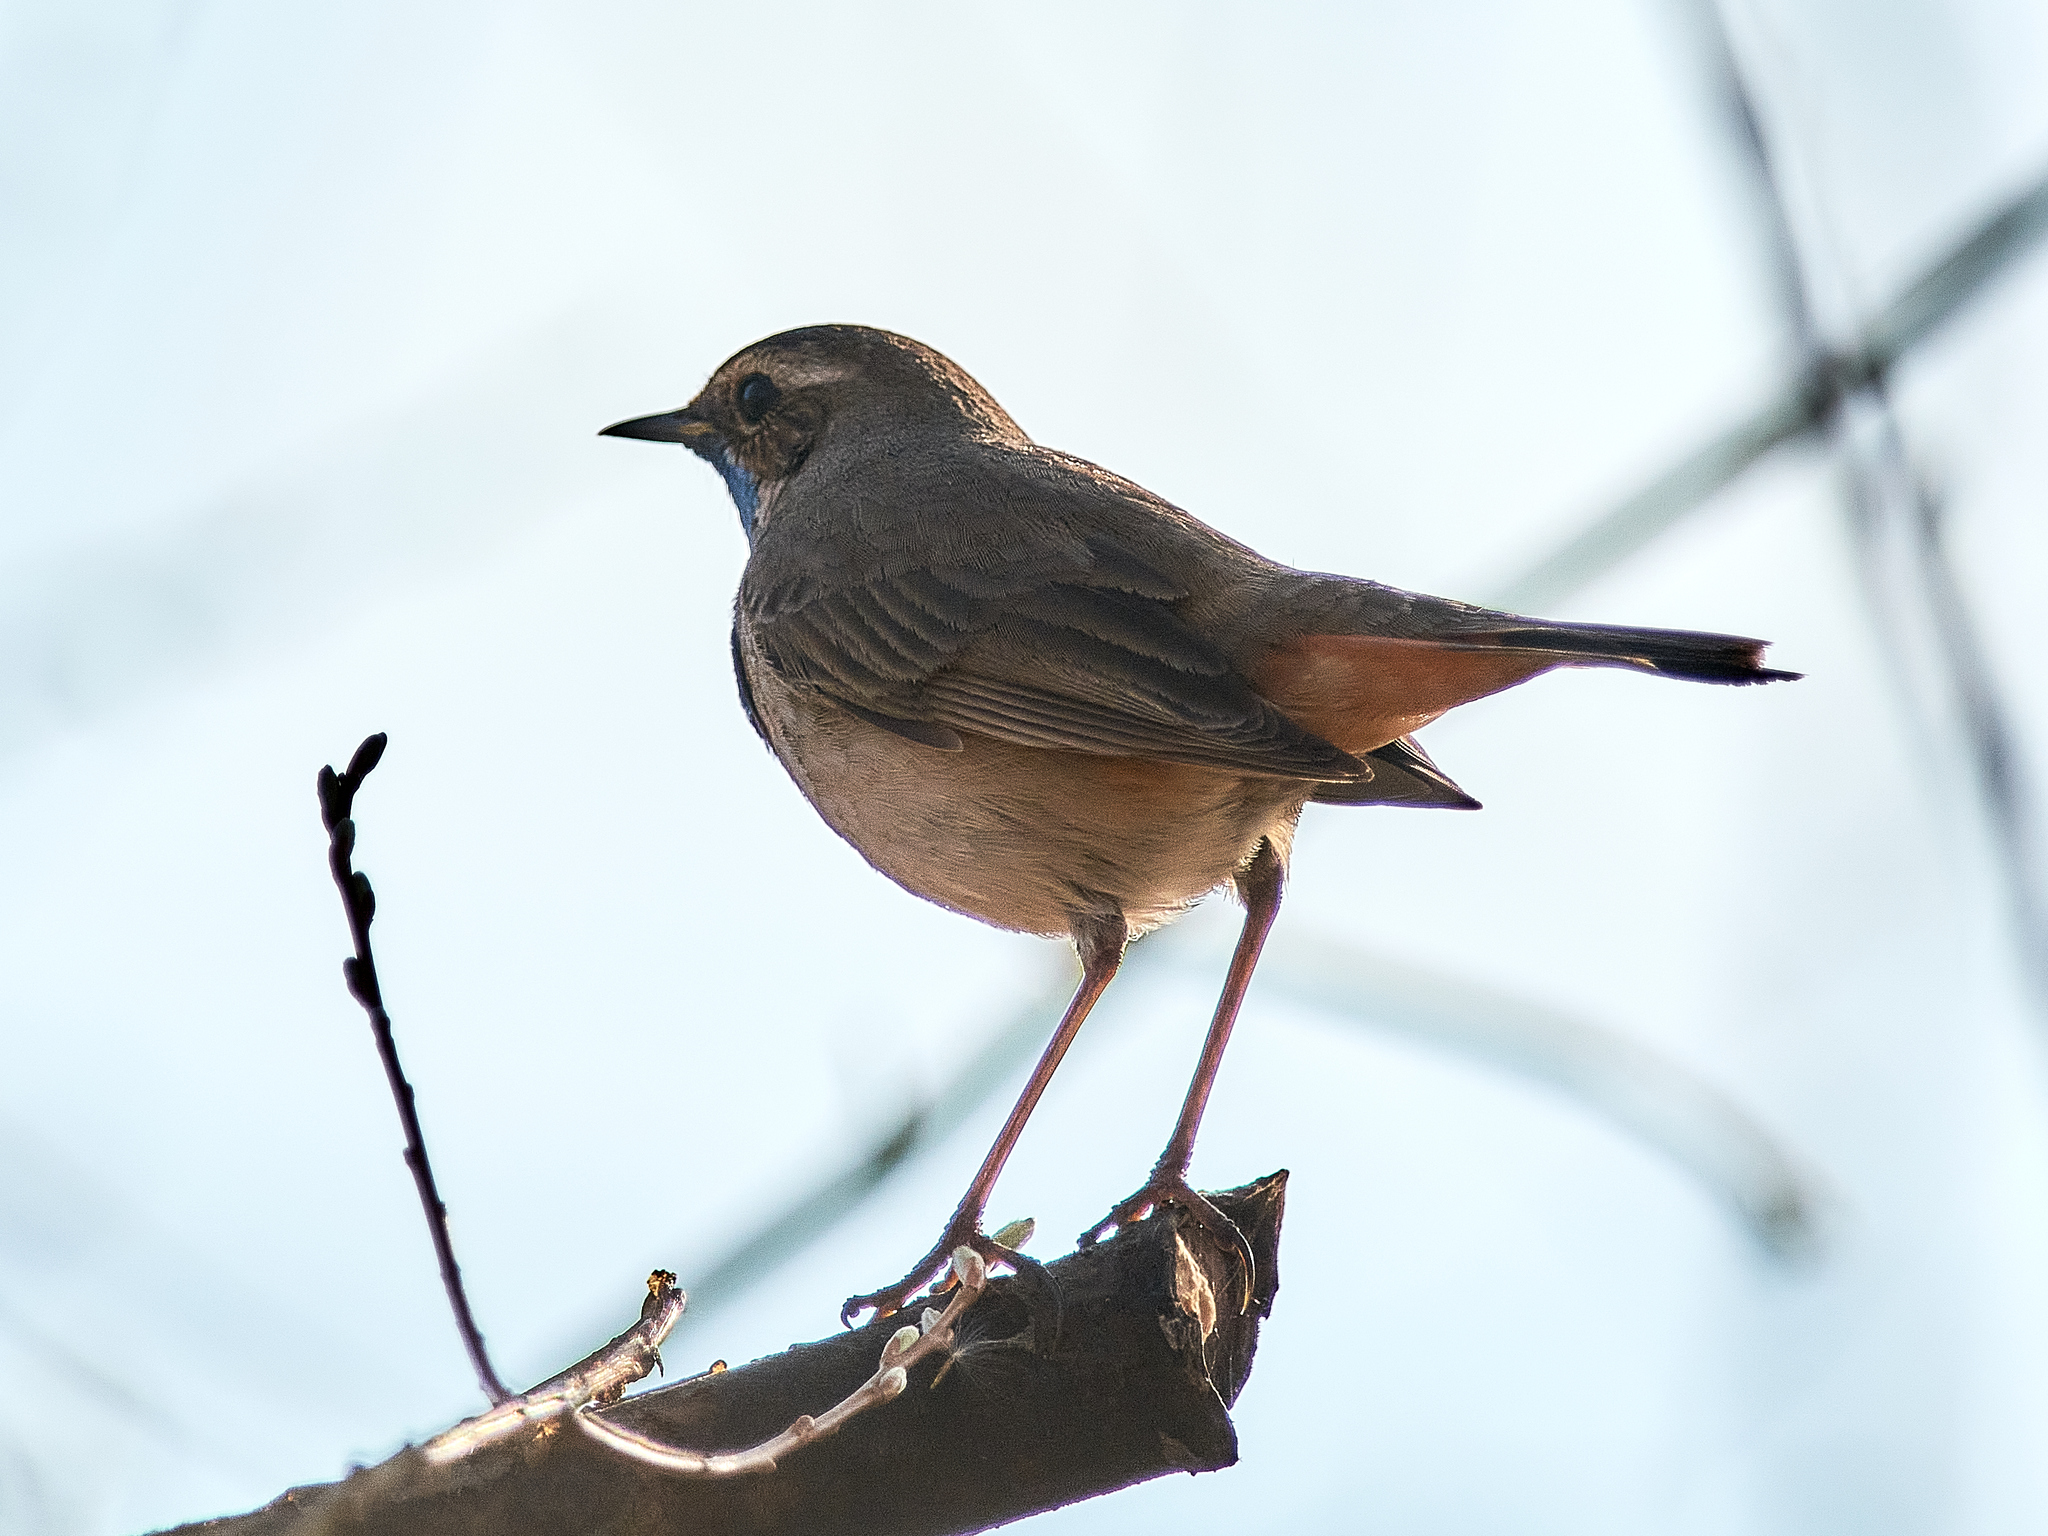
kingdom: Animalia
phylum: Chordata
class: Aves
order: Passeriformes
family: Muscicapidae
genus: Luscinia
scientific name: Luscinia svecica
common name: Bluethroat
